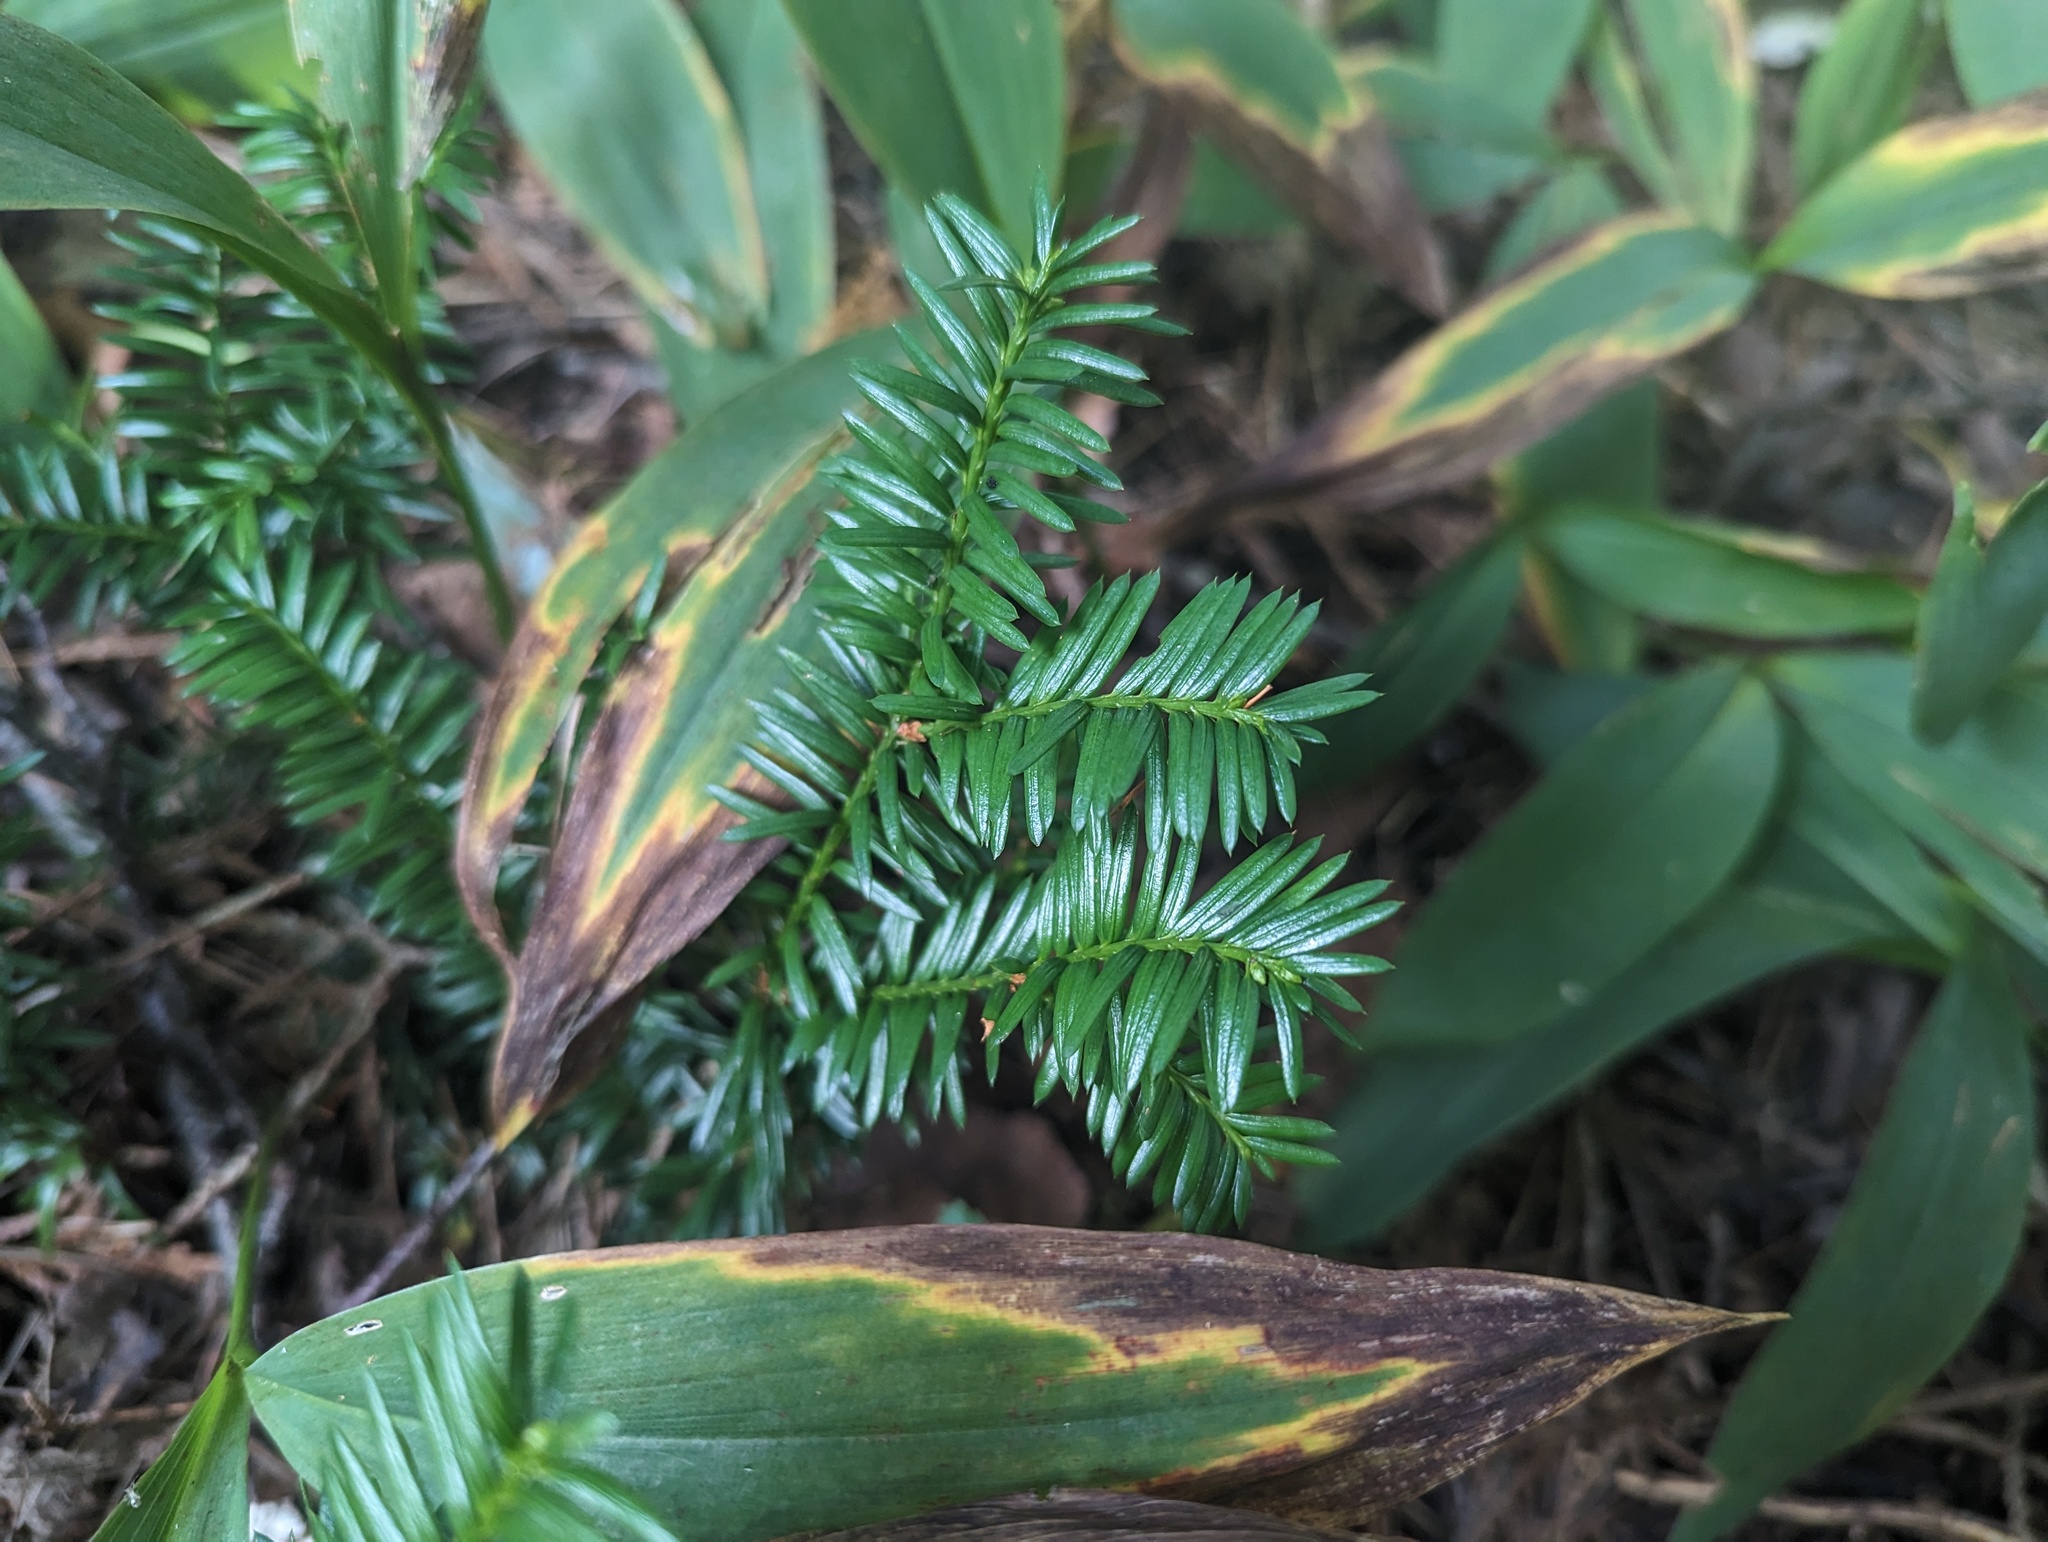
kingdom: Plantae
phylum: Tracheophyta
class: Pinopsida
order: Pinales
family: Taxaceae
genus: Taxus
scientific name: Taxus canadensis
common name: American yew
